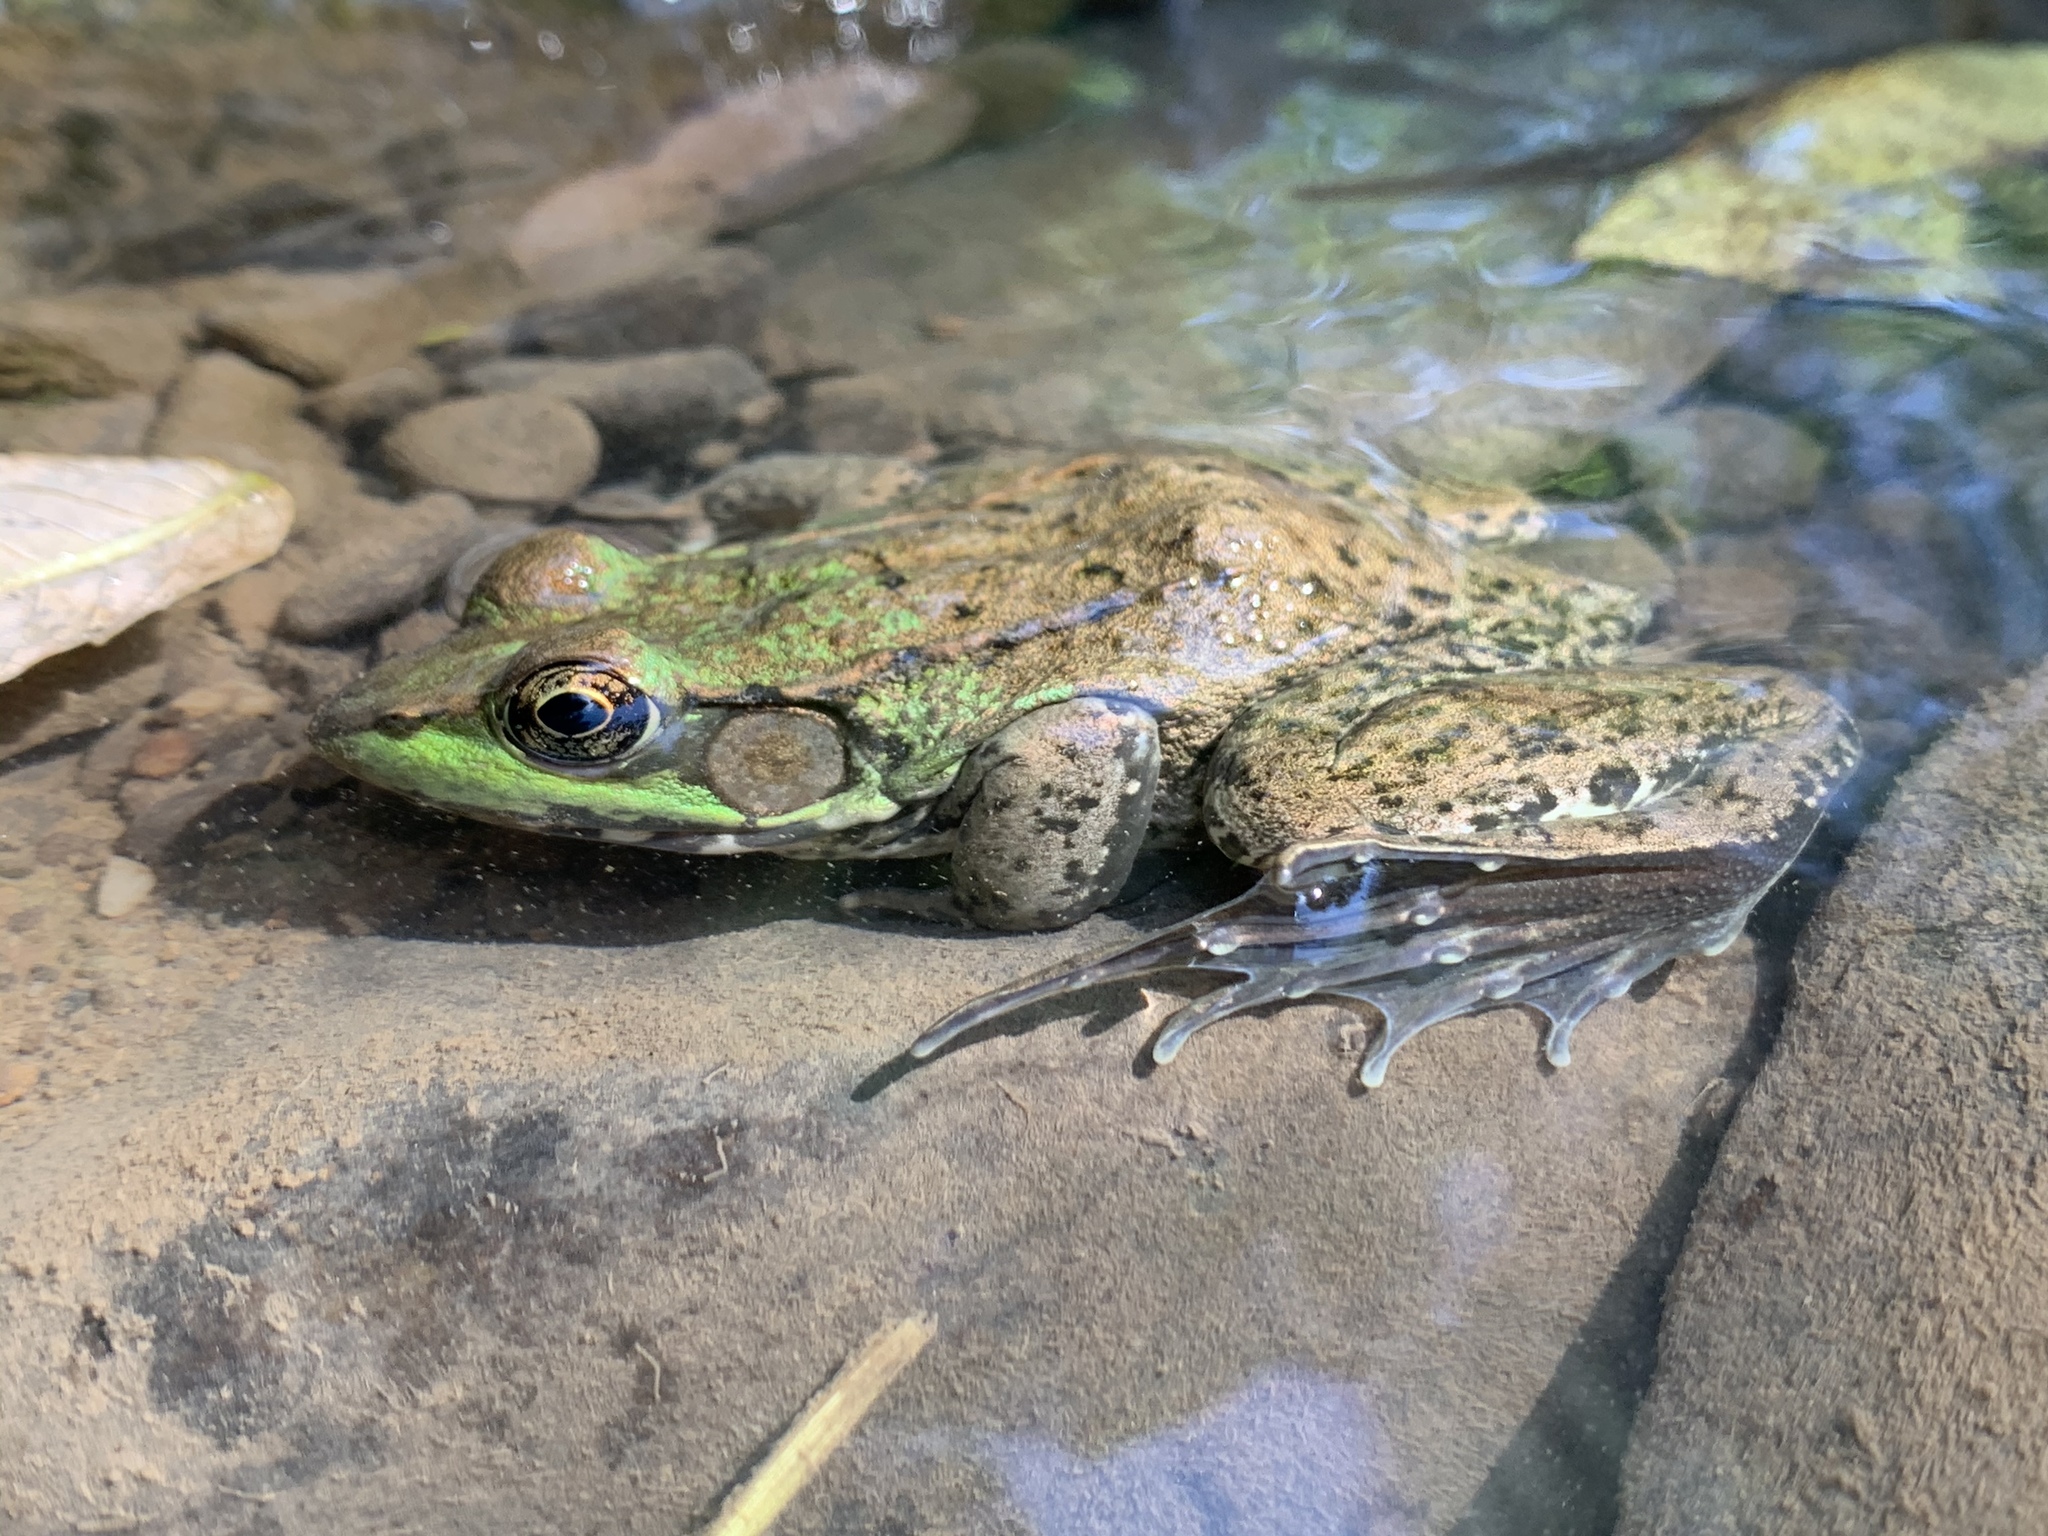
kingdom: Animalia
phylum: Chordata
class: Amphibia
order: Anura
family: Ranidae
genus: Lithobates
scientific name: Lithobates clamitans
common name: Green frog
